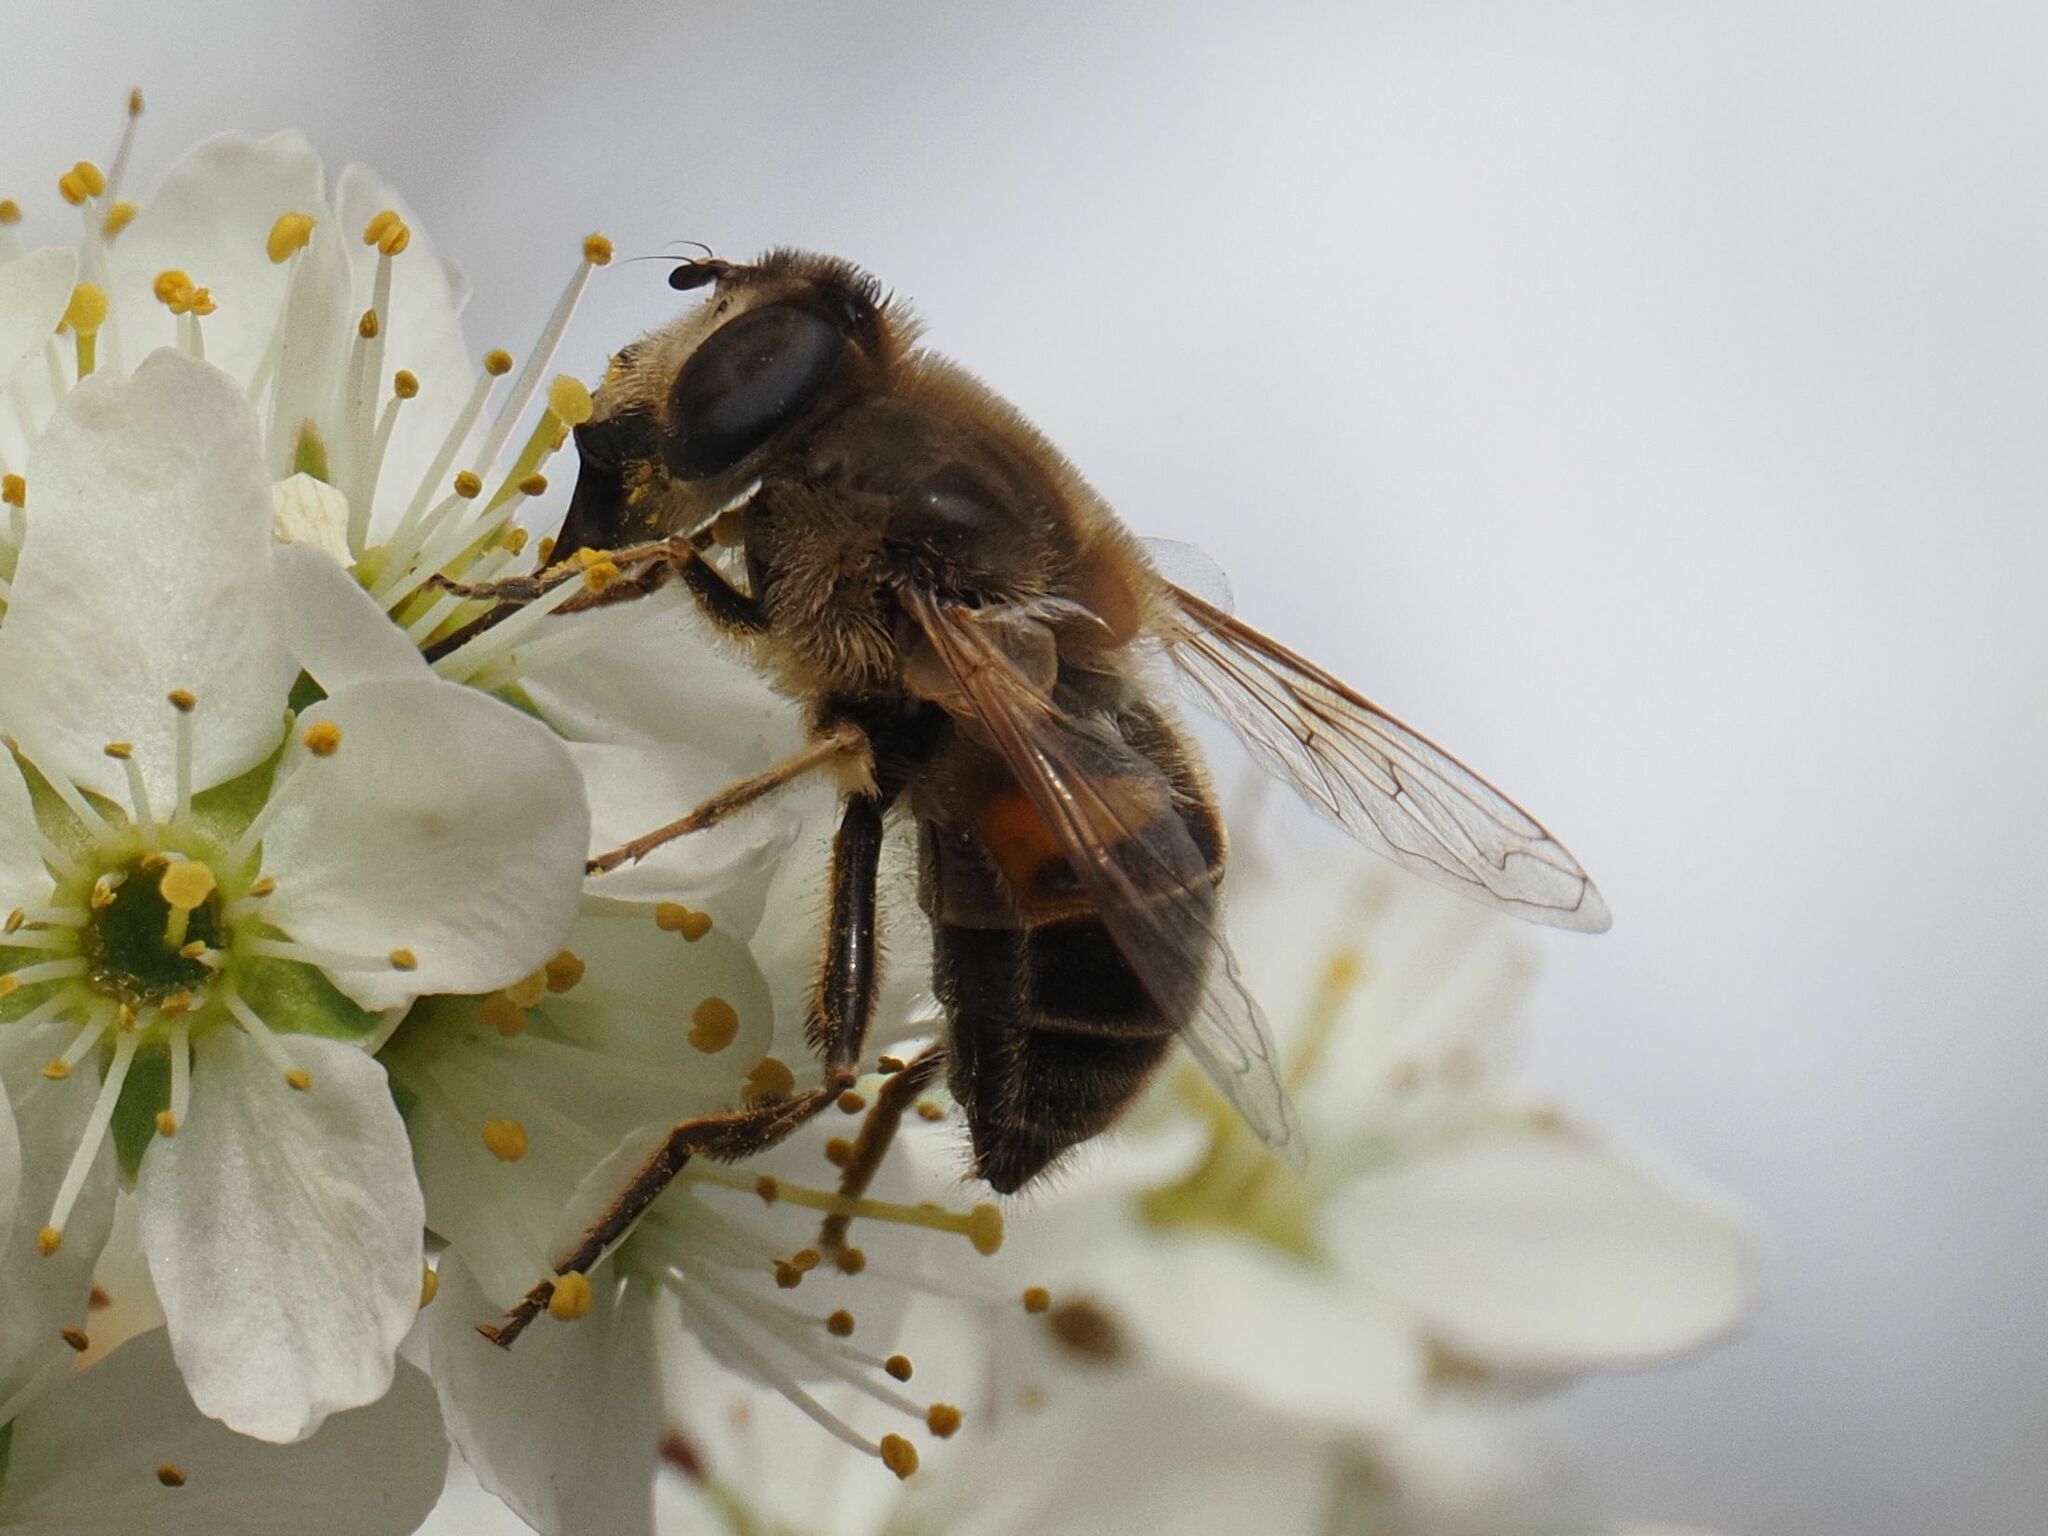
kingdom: Animalia
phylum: Arthropoda
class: Insecta
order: Diptera
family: Syrphidae
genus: Eristalis
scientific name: Eristalis tenax
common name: Drone fly
